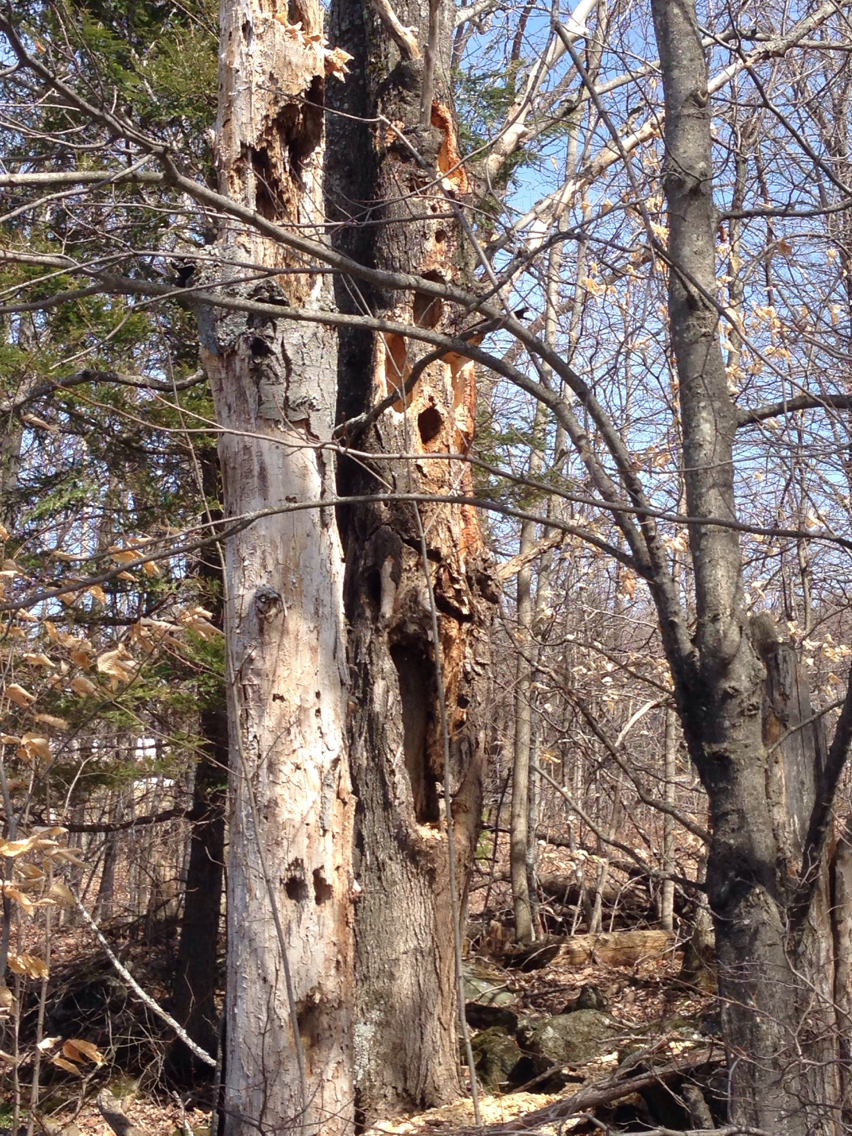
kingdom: Animalia
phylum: Chordata
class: Aves
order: Piciformes
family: Picidae
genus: Dryocopus
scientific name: Dryocopus pileatus
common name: Pileated woodpecker
